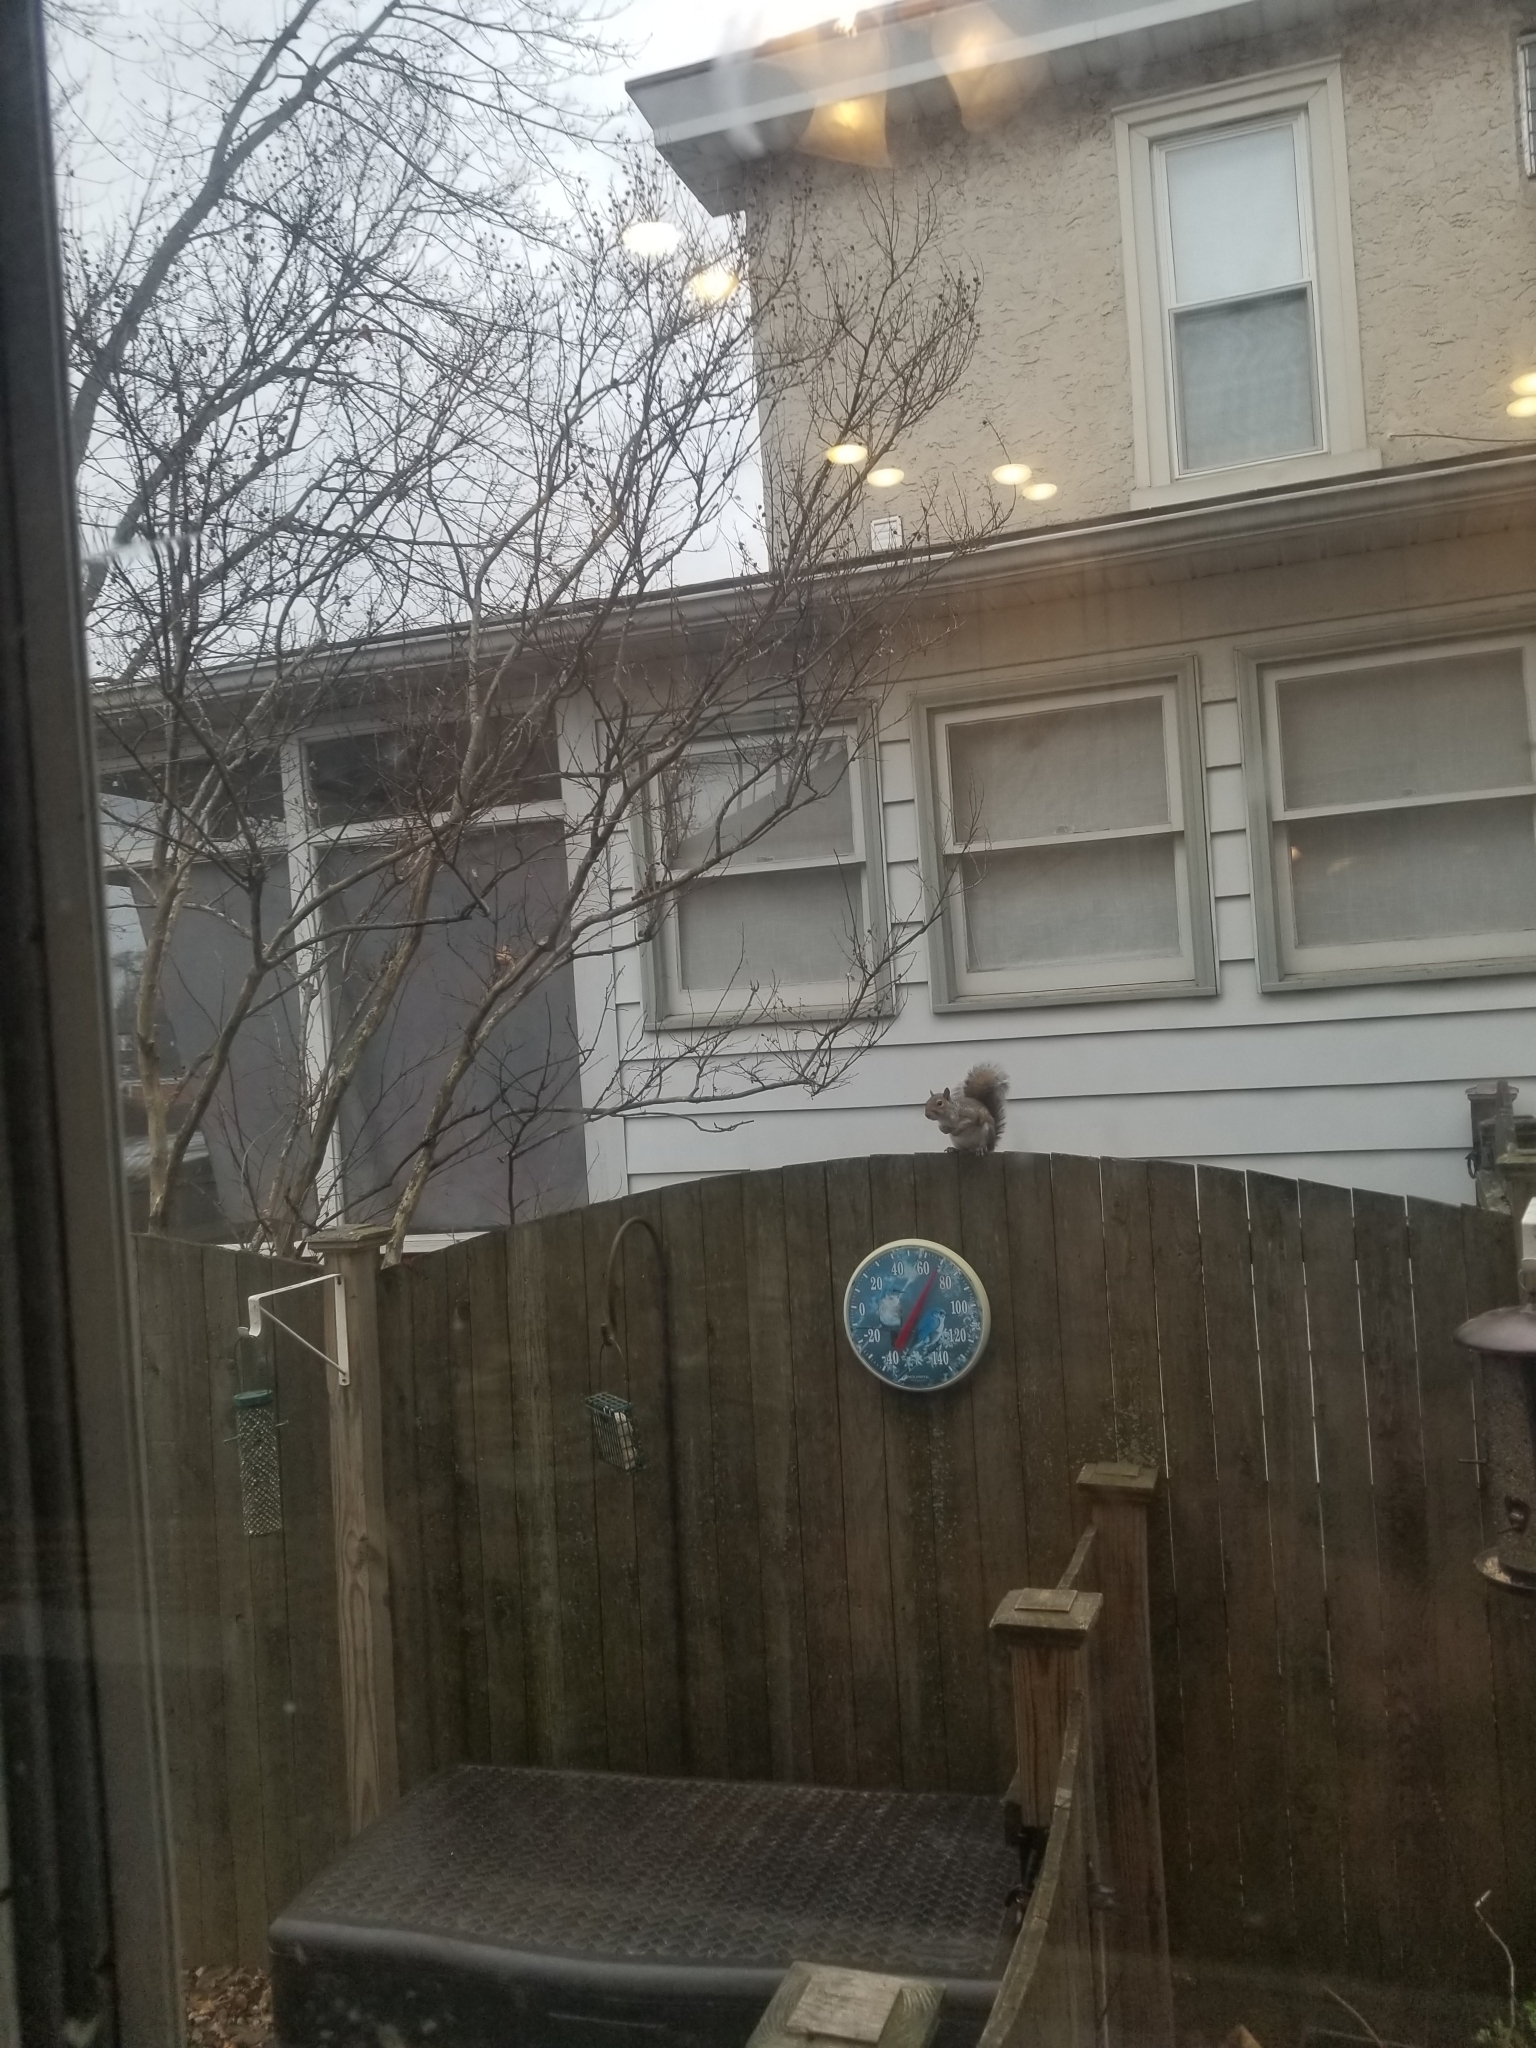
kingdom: Animalia
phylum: Chordata
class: Mammalia
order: Rodentia
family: Sciuridae
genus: Sciurus
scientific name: Sciurus carolinensis
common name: Eastern gray squirrel
